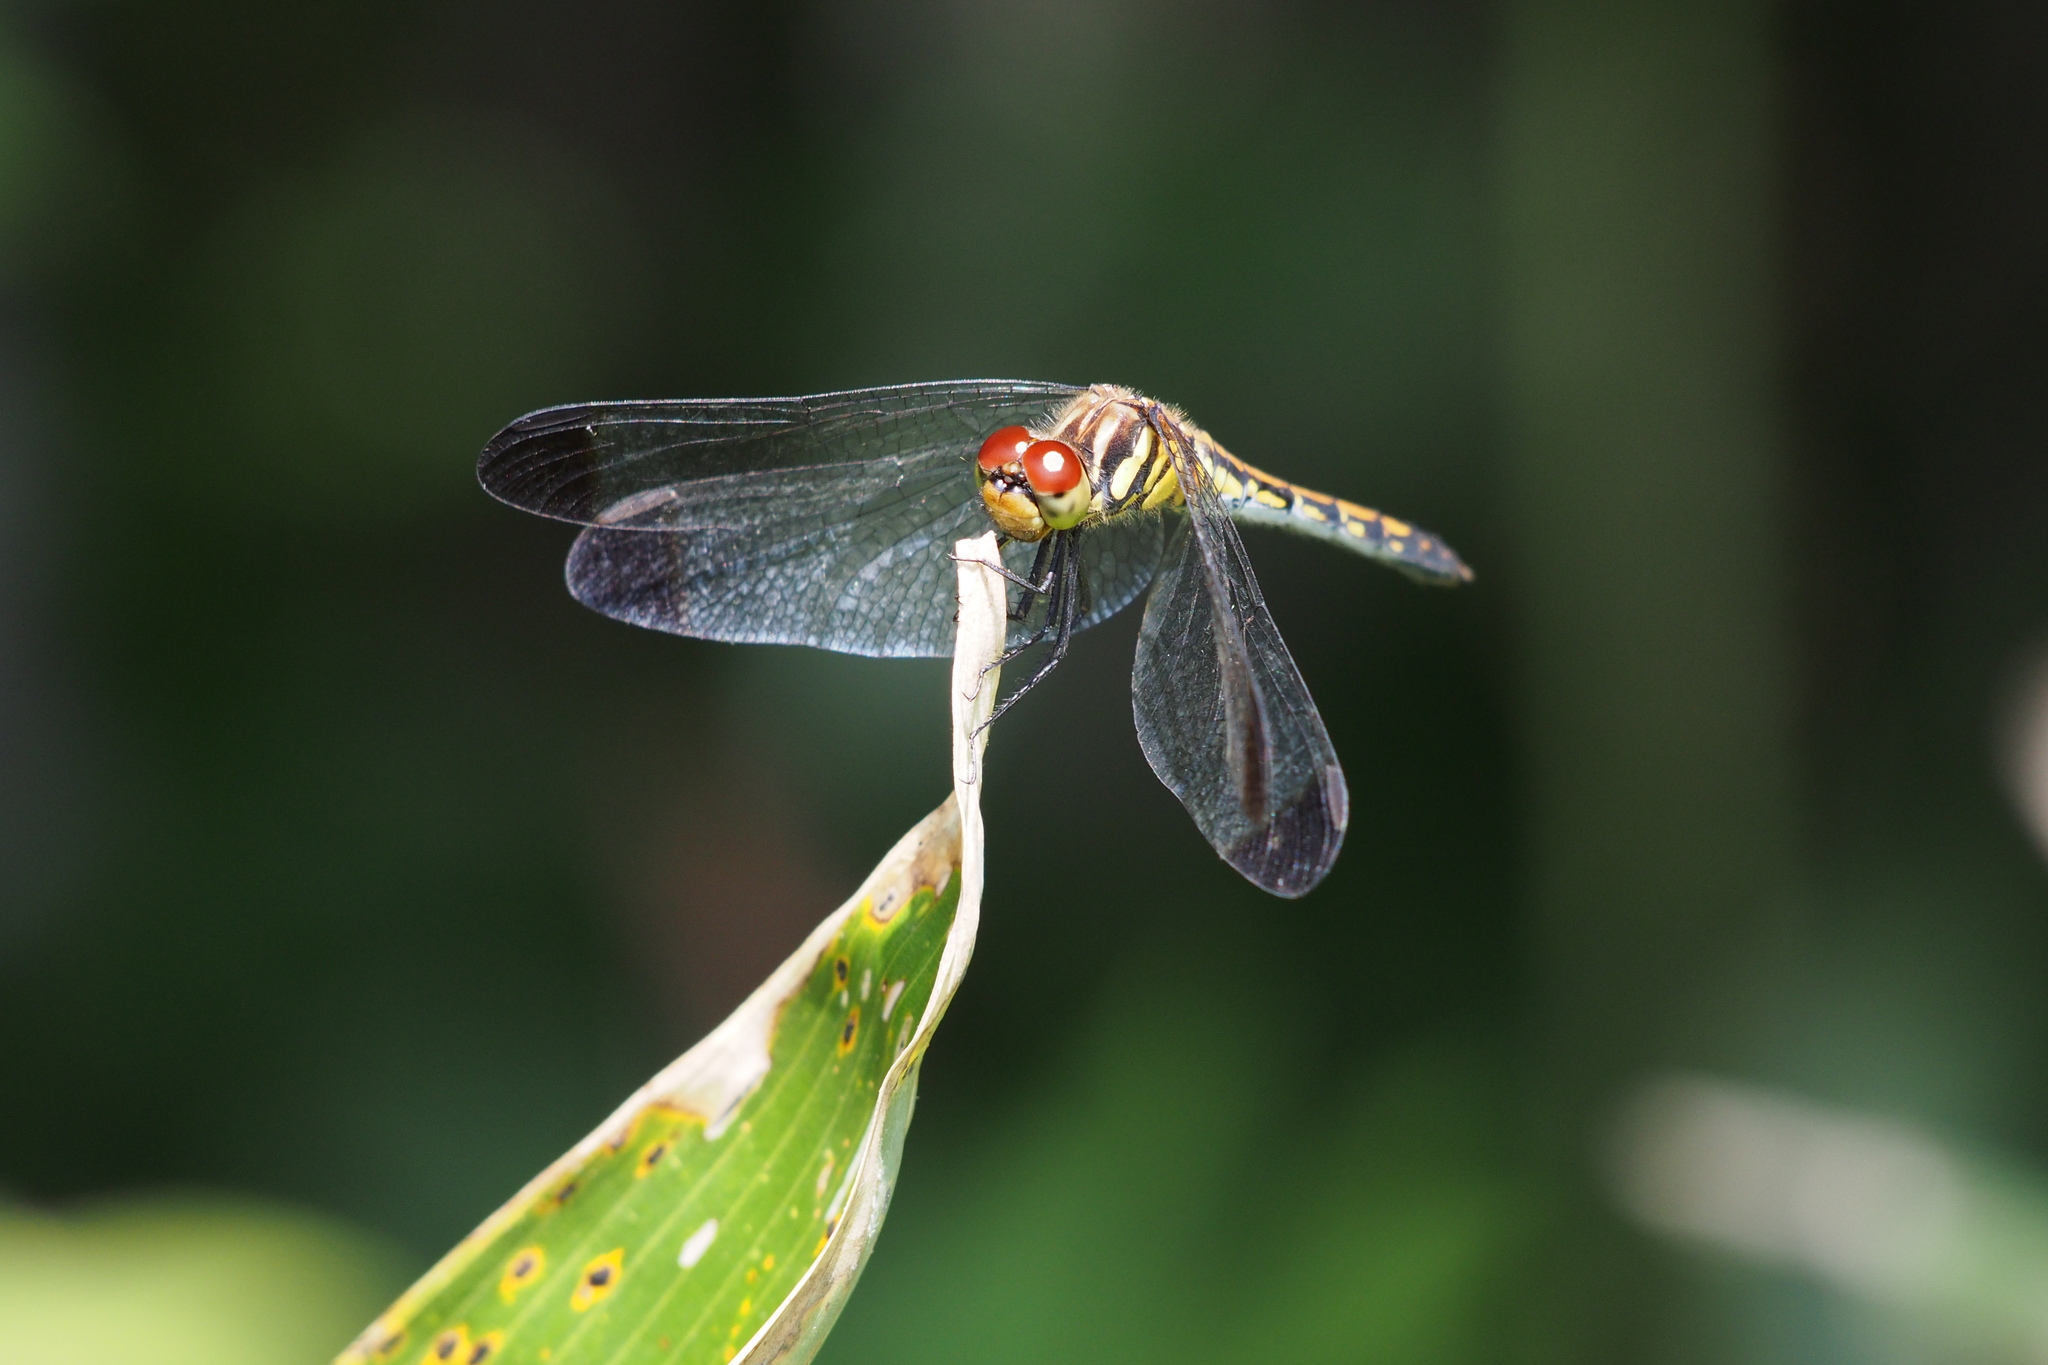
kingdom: Animalia
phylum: Arthropoda
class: Insecta
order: Odonata
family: Libellulidae
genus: Sympetrum
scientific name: Sympetrum infuscatum
